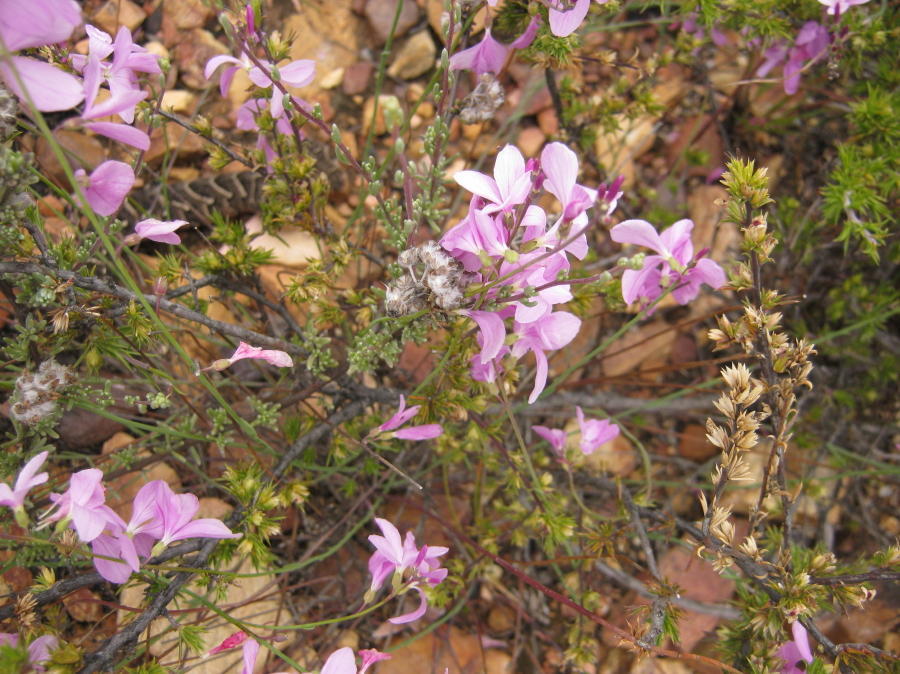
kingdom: Plantae
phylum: Tracheophyta
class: Magnoliopsida
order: Brassicales
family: Brassicaceae
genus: Heliophila
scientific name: Heliophila juncea
